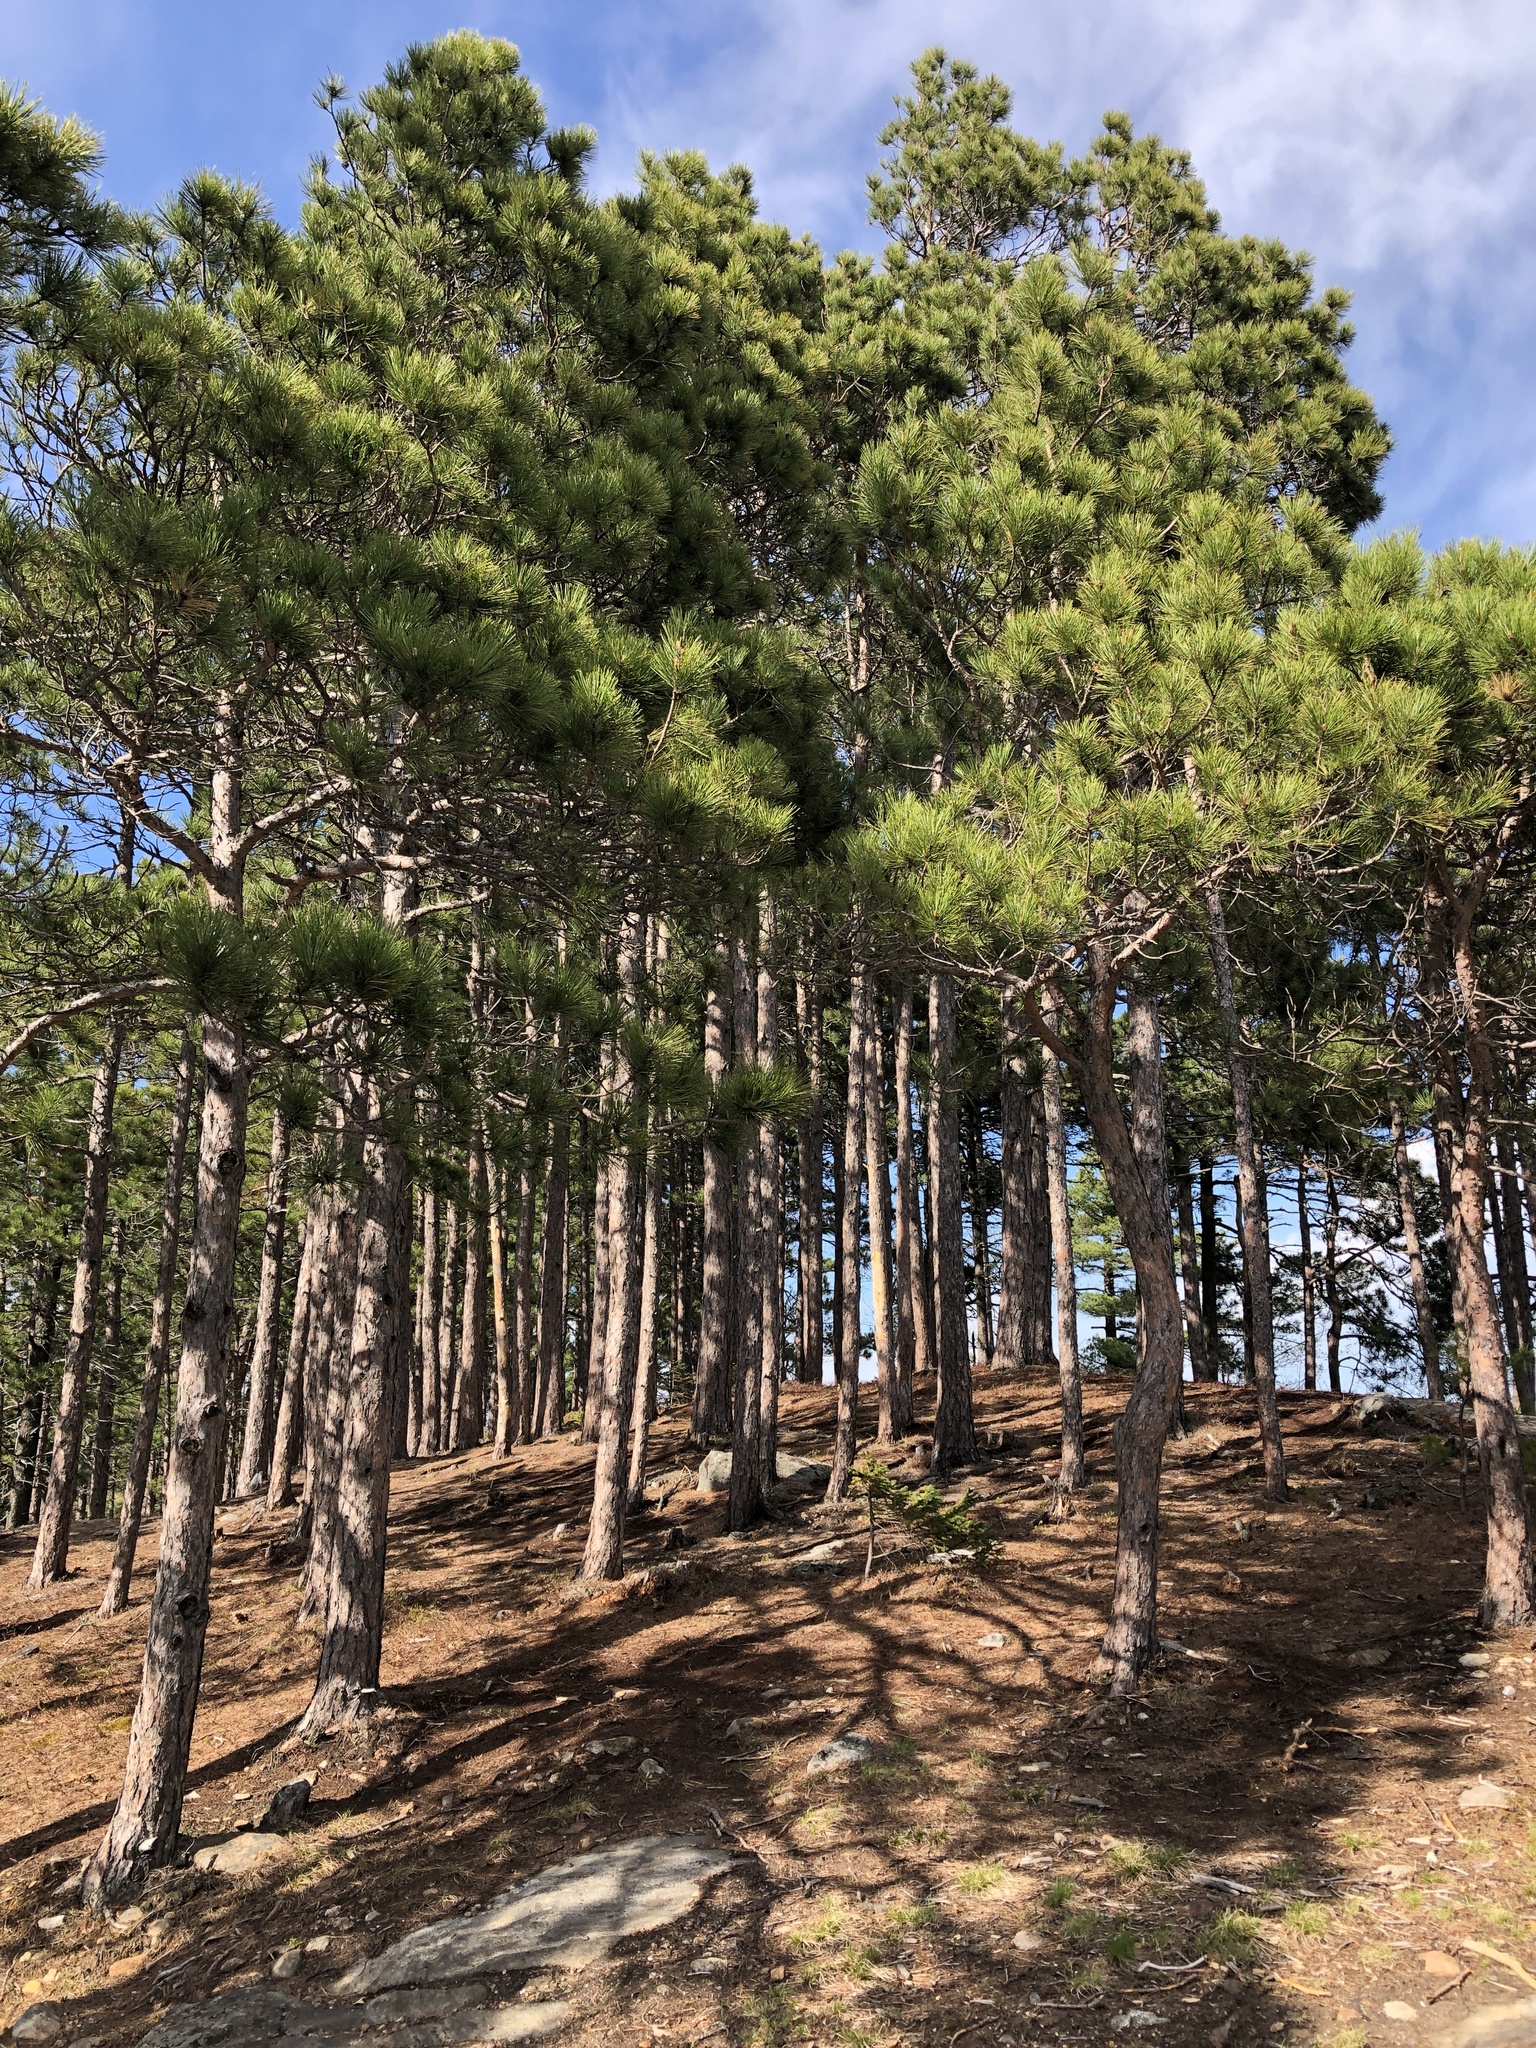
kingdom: Plantae
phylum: Tracheophyta
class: Pinopsida
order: Pinales
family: Pinaceae
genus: Pinus
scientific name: Pinus resinosa
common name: Norway pine
